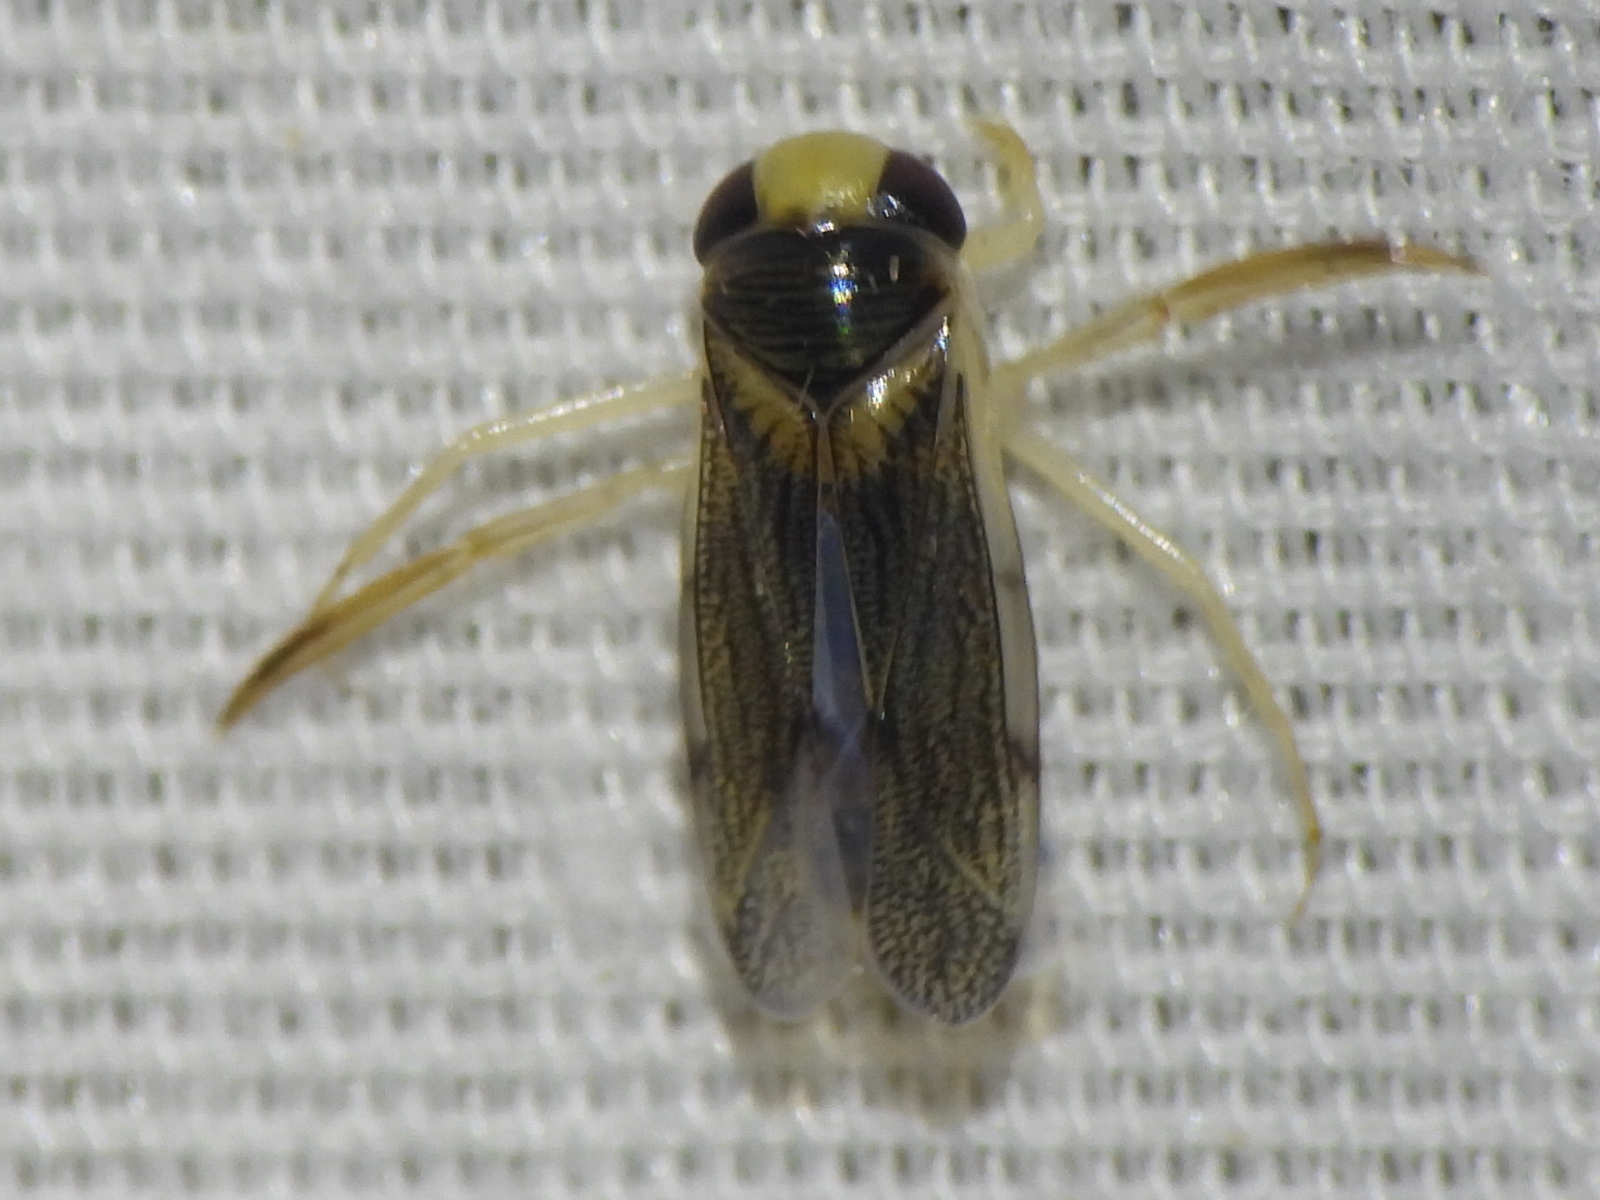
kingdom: Animalia
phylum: Arthropoda
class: Insecta
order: Hemiptera
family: Corixidae
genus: Corisella
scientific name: Corisella edulis
